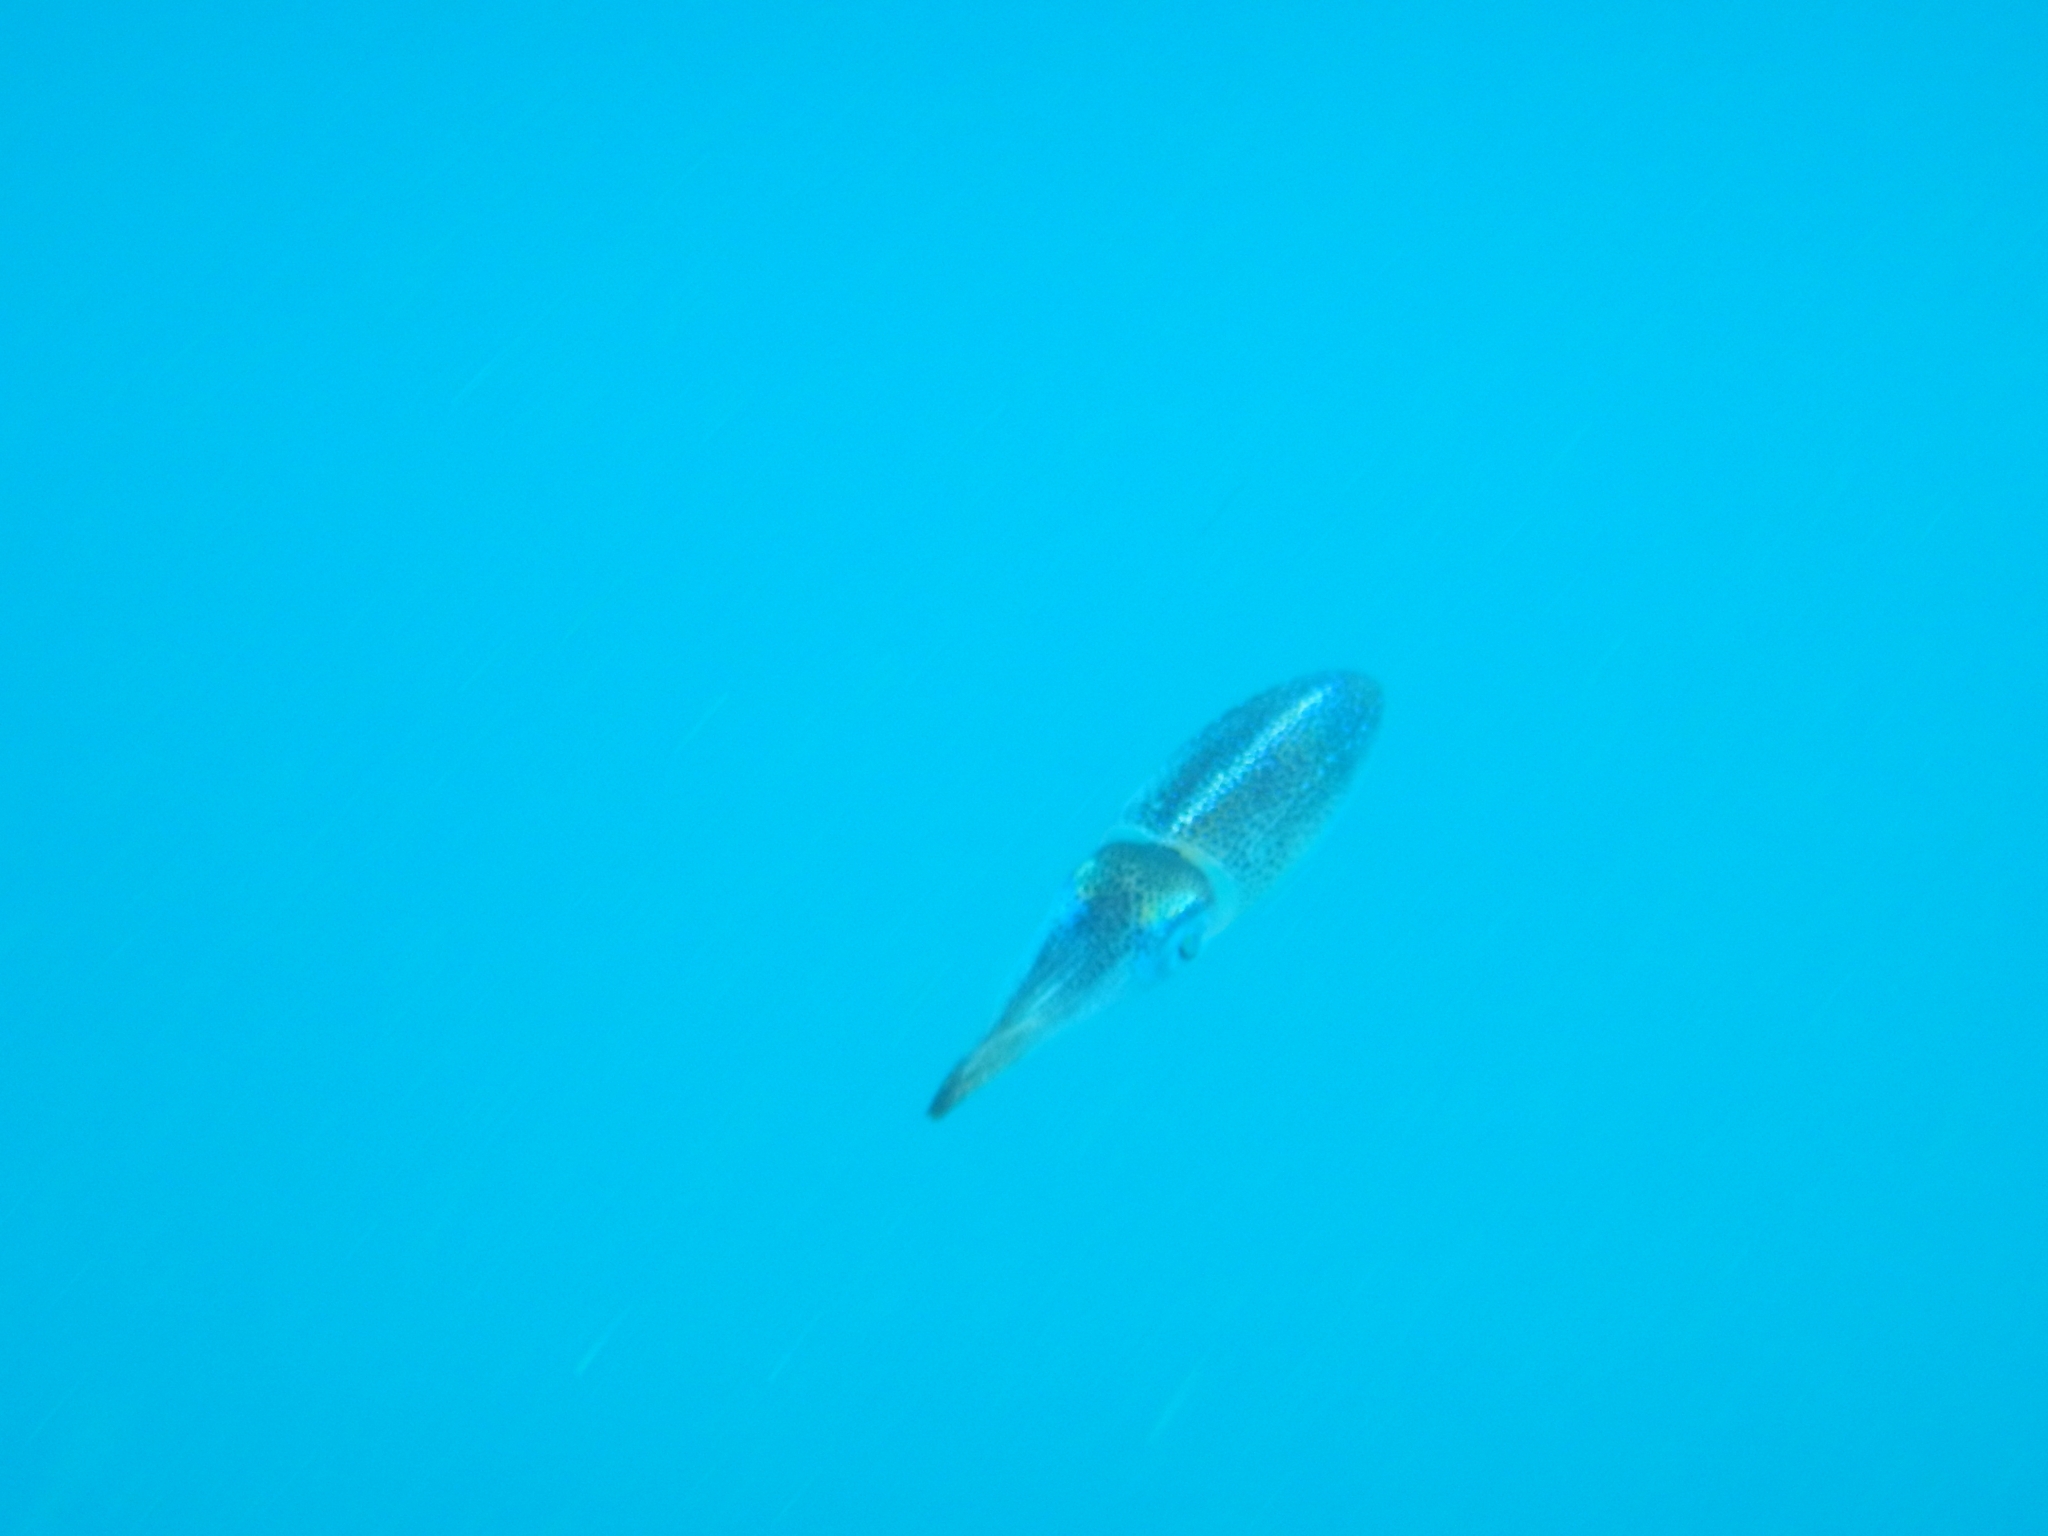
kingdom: Animalia
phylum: Mollusca
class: Cephalopoda
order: Myopsida
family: Loliginidae
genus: Sepioteuthis
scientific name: Sepioteuthis sepioidea
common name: Caribbean reef squid
